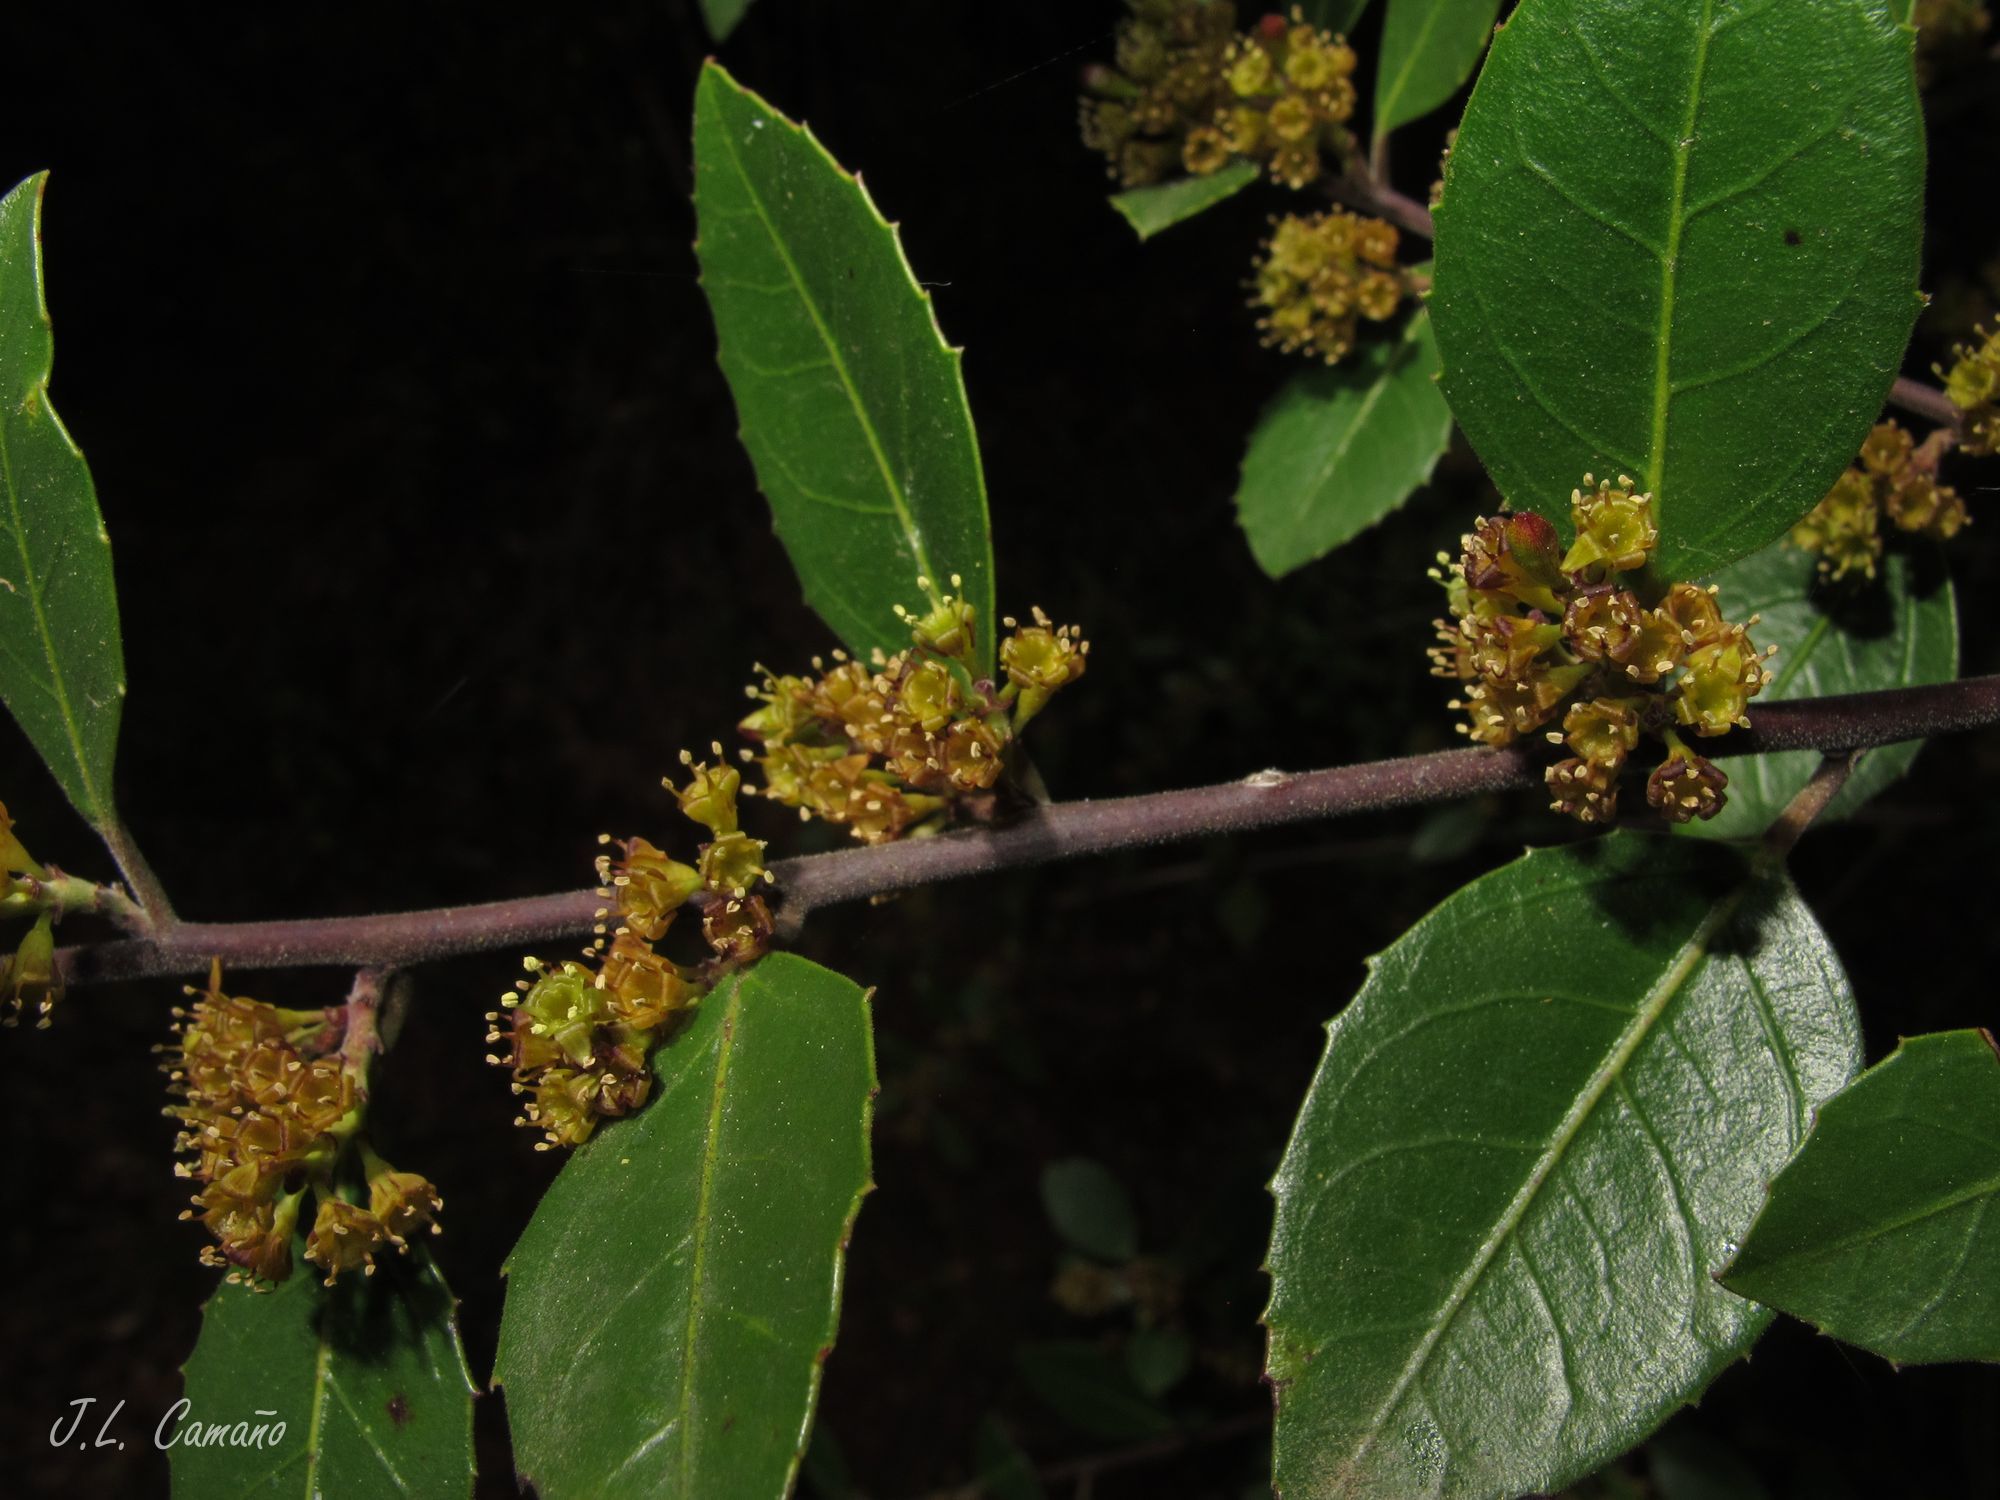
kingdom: Plantae
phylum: Tracheophyta
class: Magnoliopsida
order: Rosales
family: Rhamnaceae
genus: Rhamnus
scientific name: Rhamnus alaternus
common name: Mediterranean buckthorn
